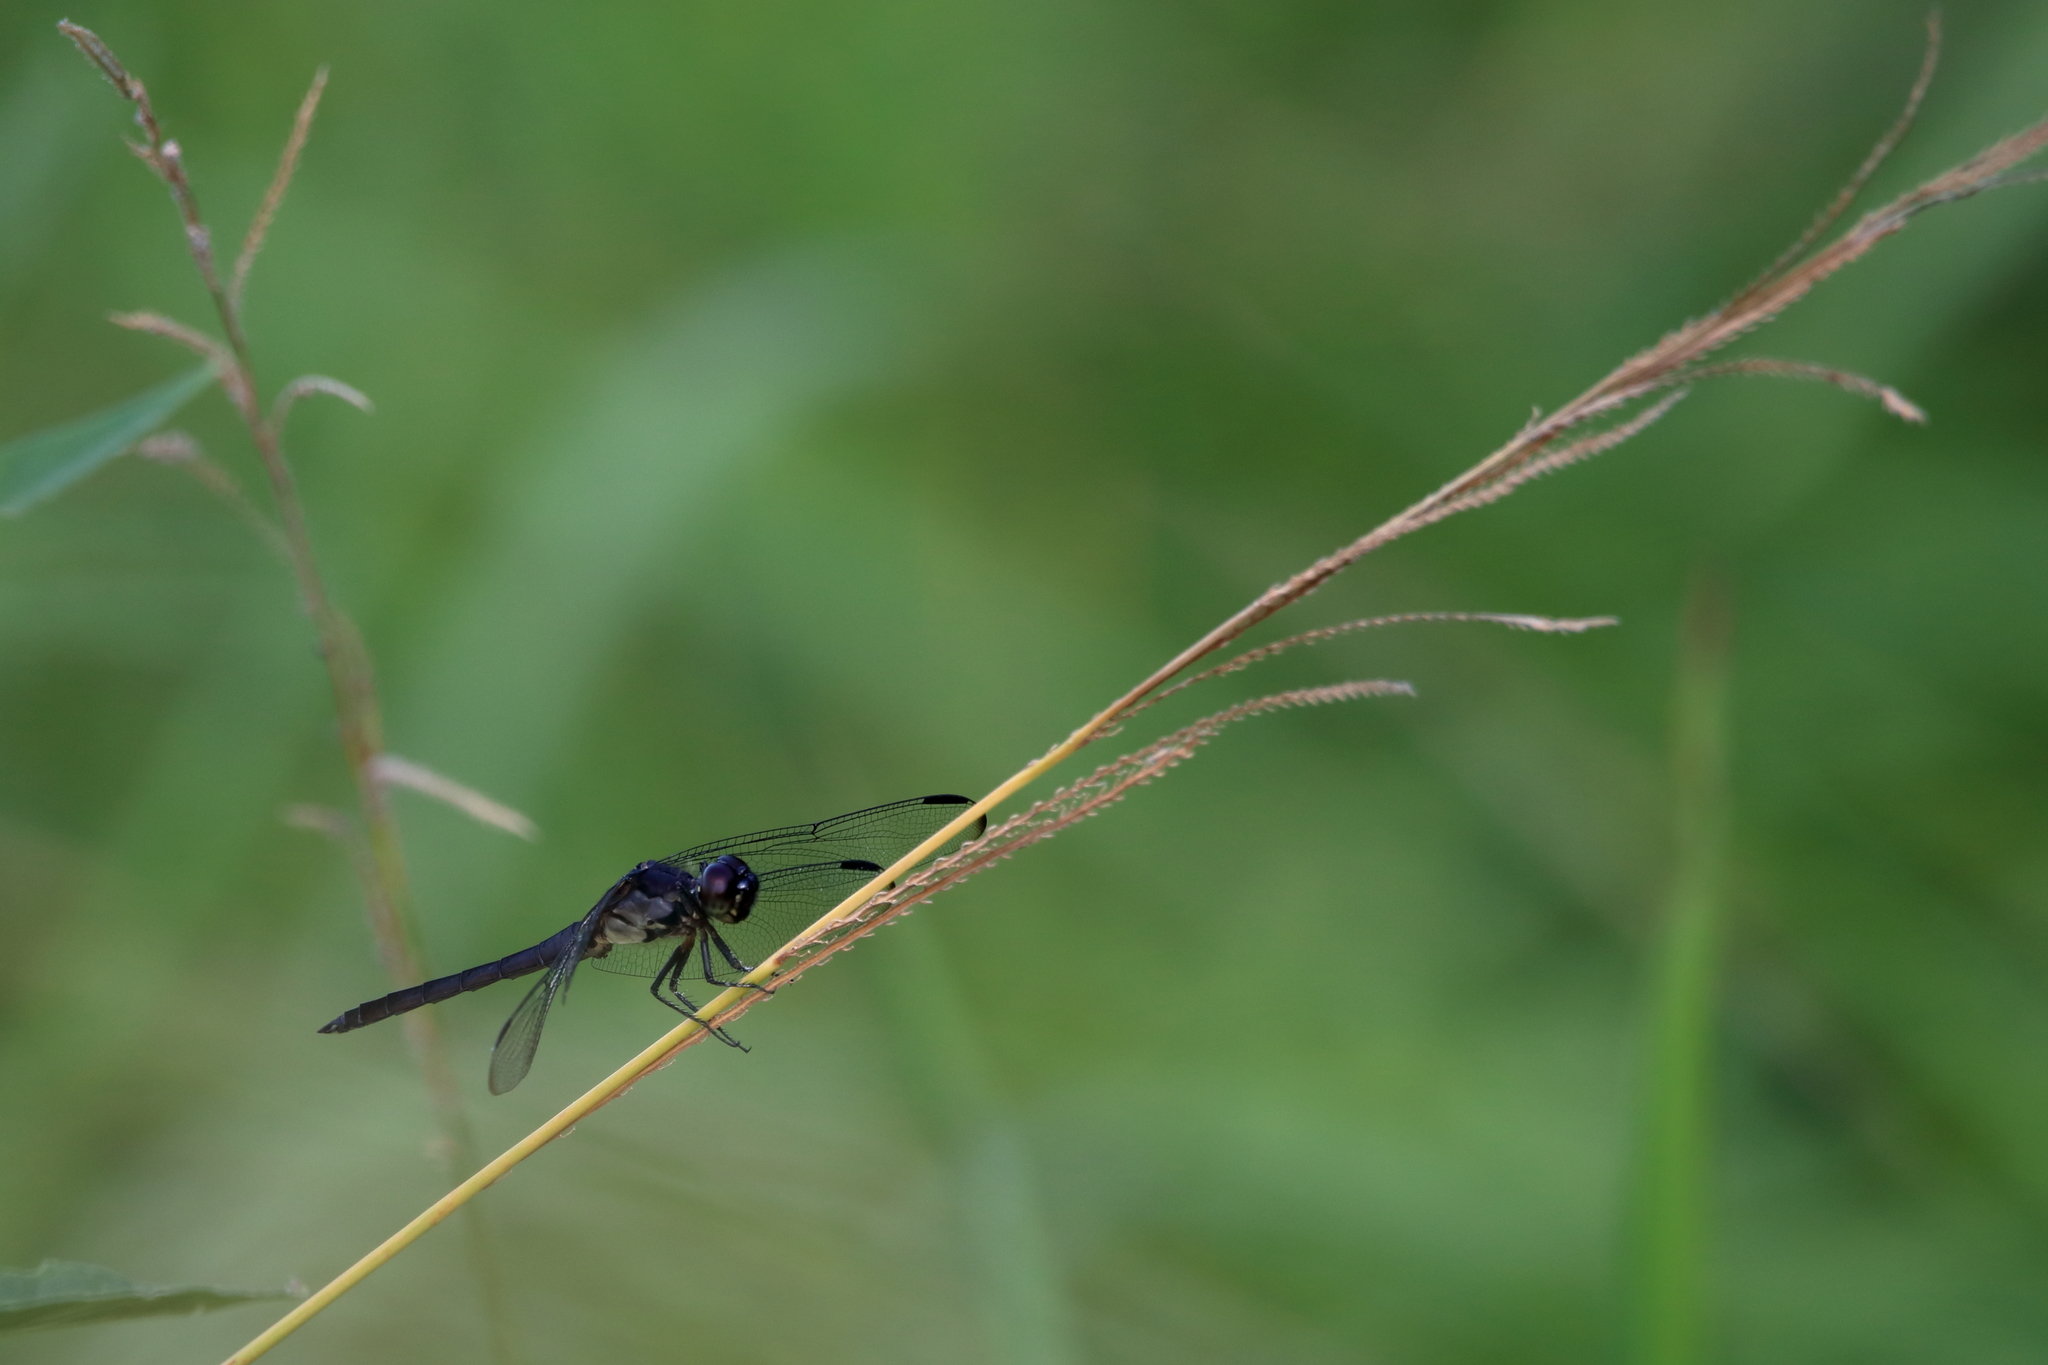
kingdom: Animalia
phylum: Arthropoda
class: Insecta
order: Odonata
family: Libellulidae
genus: Libellula
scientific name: Libellula incesta
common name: Slaty skimmer
